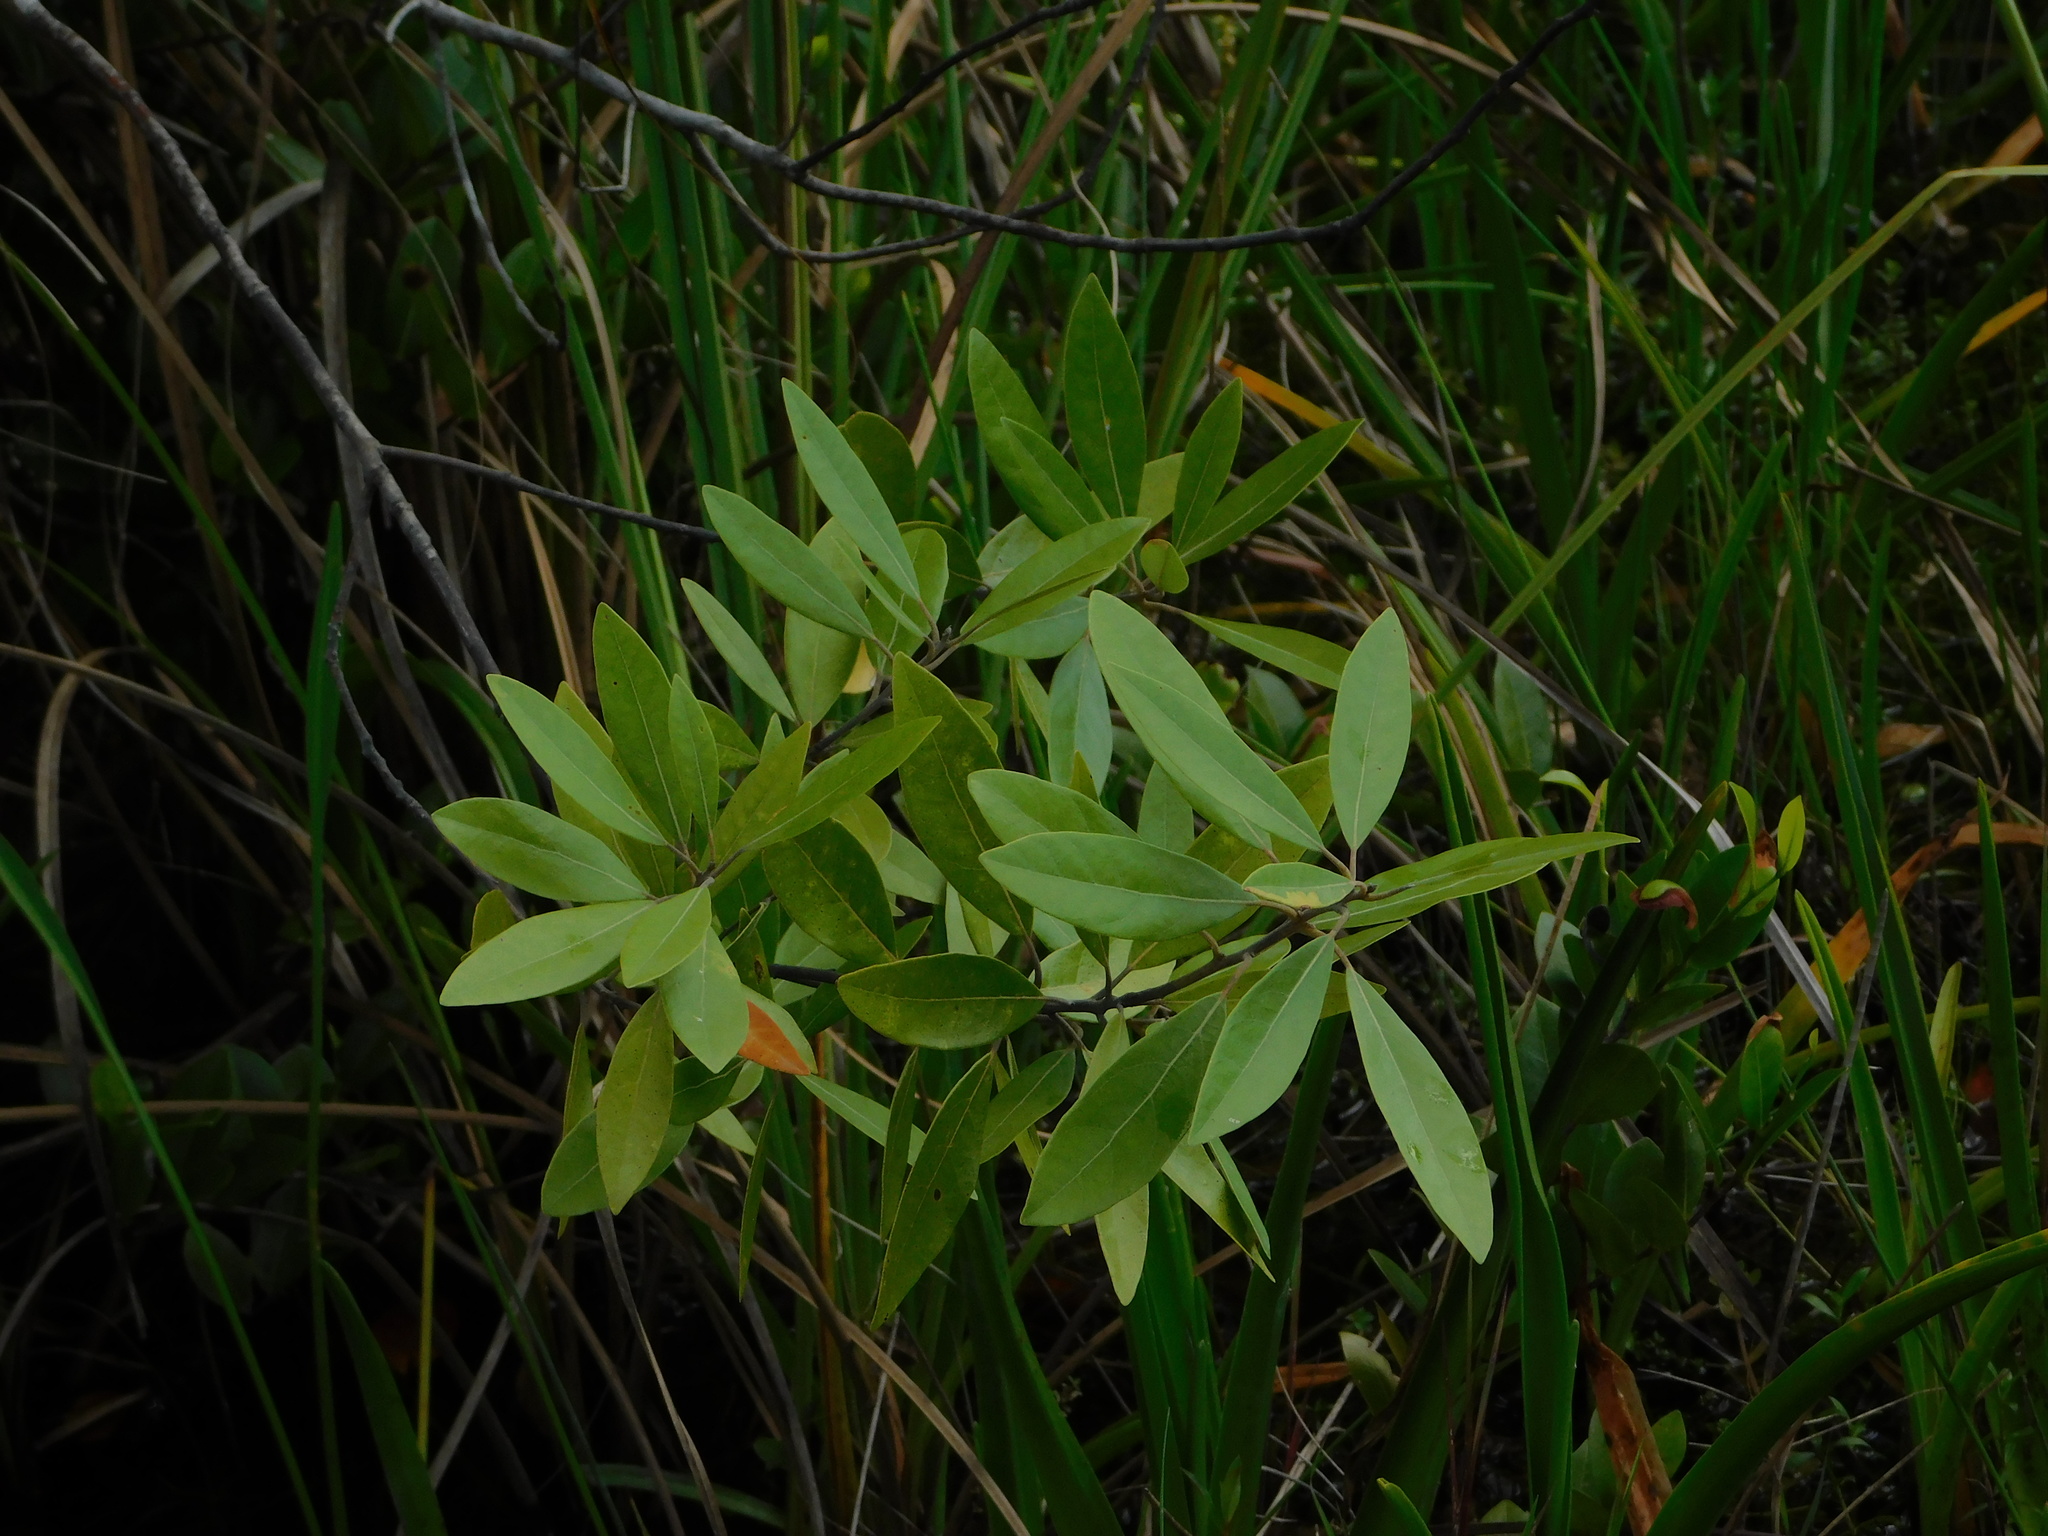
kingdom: Plantae
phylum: Tracheophyta
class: Magnoliopsida
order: Laurales
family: Lauraceae
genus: Persea
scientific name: Persea palustris
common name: Swampbay
